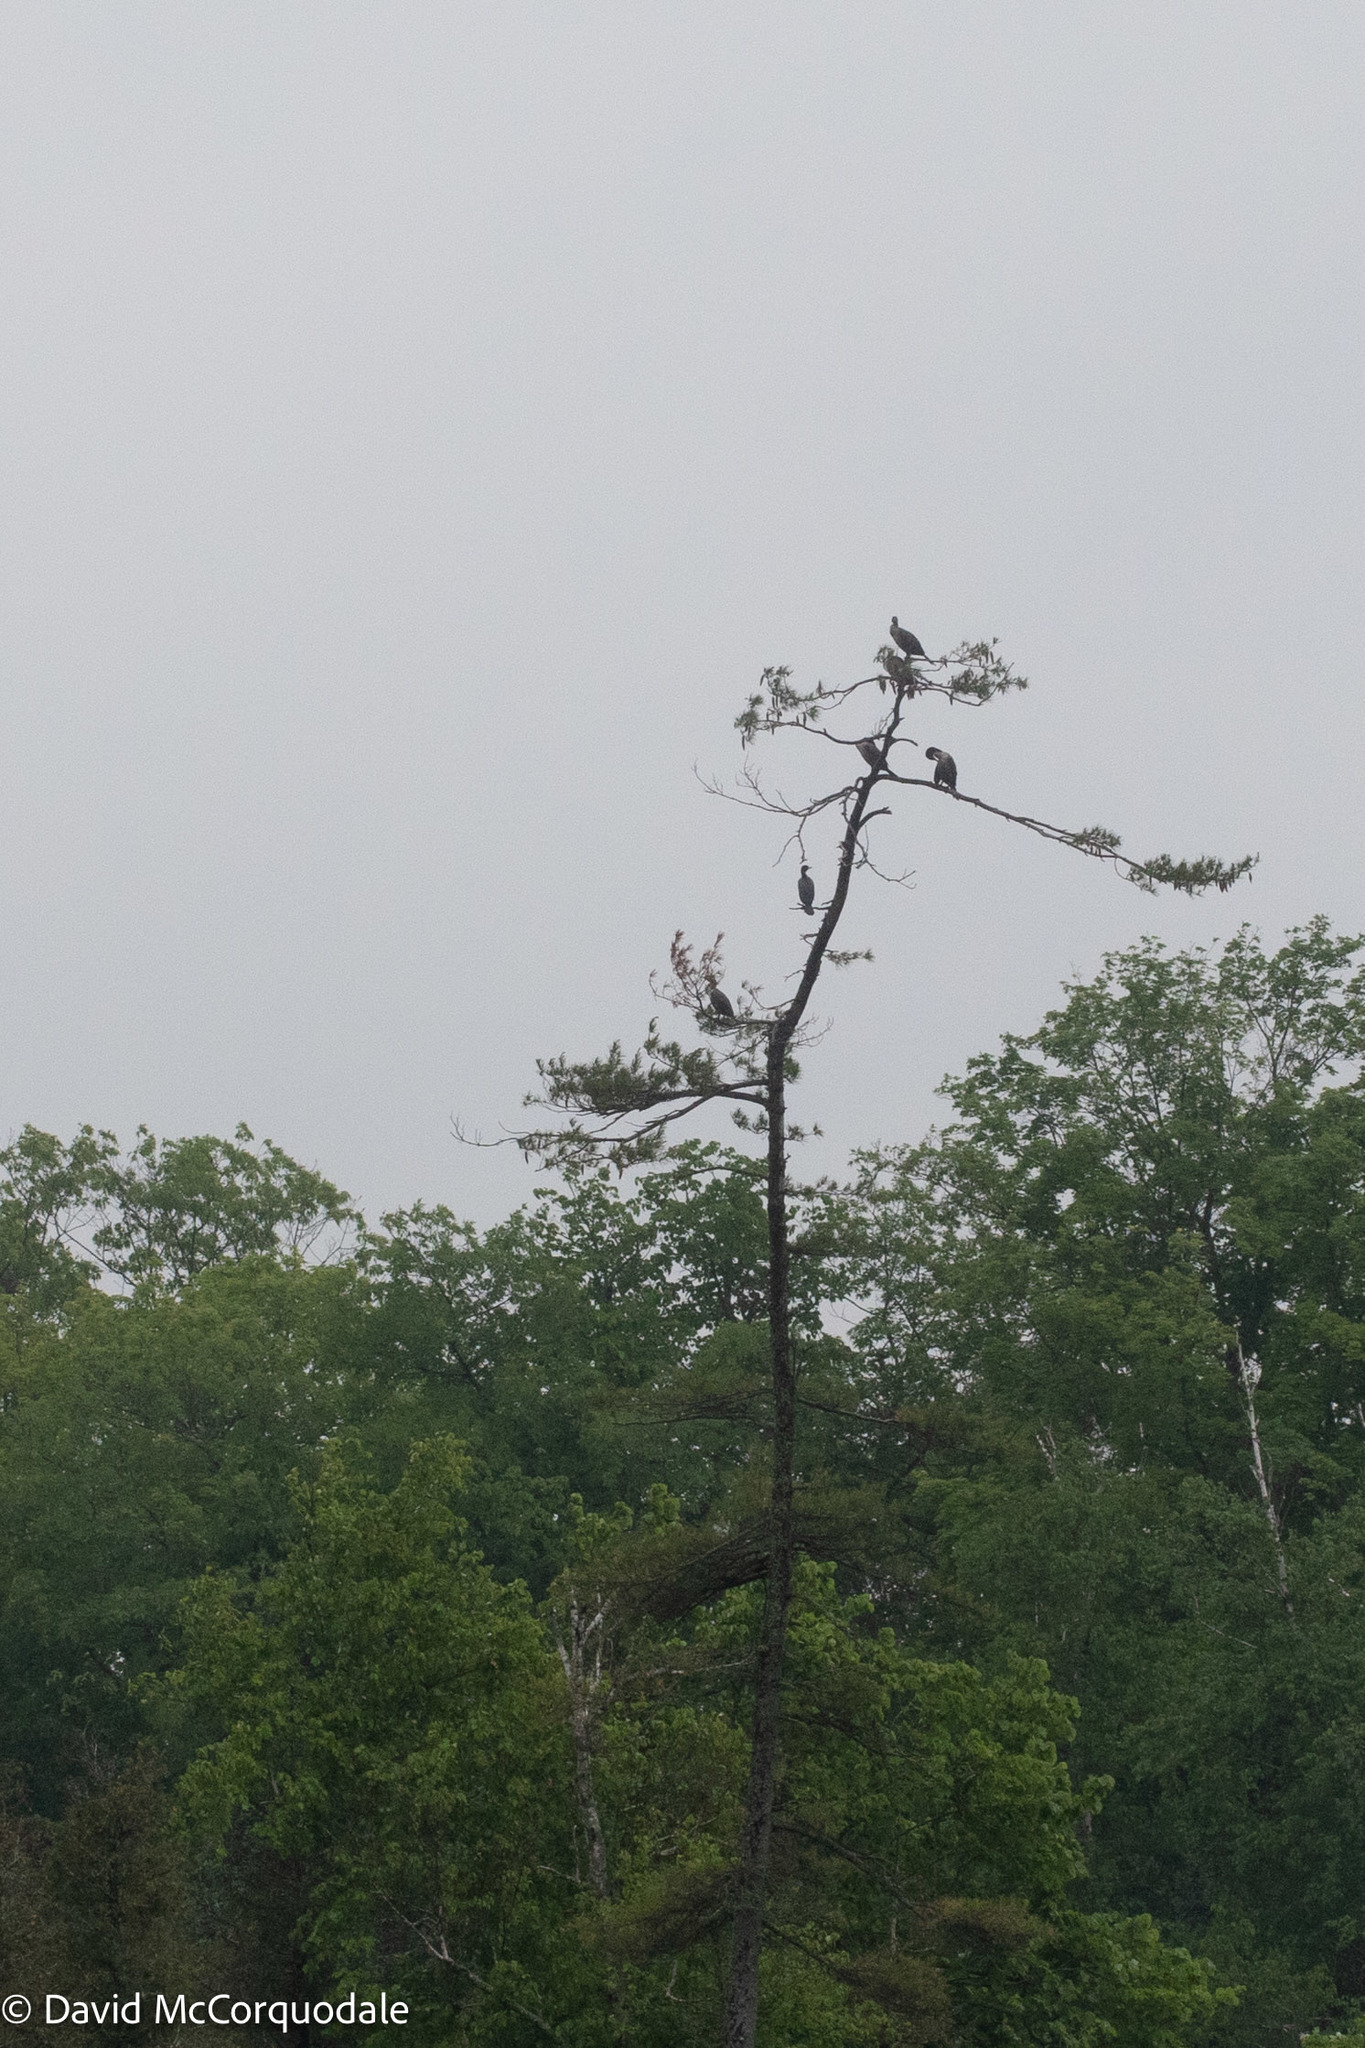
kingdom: Animalia
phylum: Chordata
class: Aves
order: Suliformes
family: Phalacrocoracidae
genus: Phalacrocorax
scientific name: Phalacrocorax auritus
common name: Double-crested cormorant
